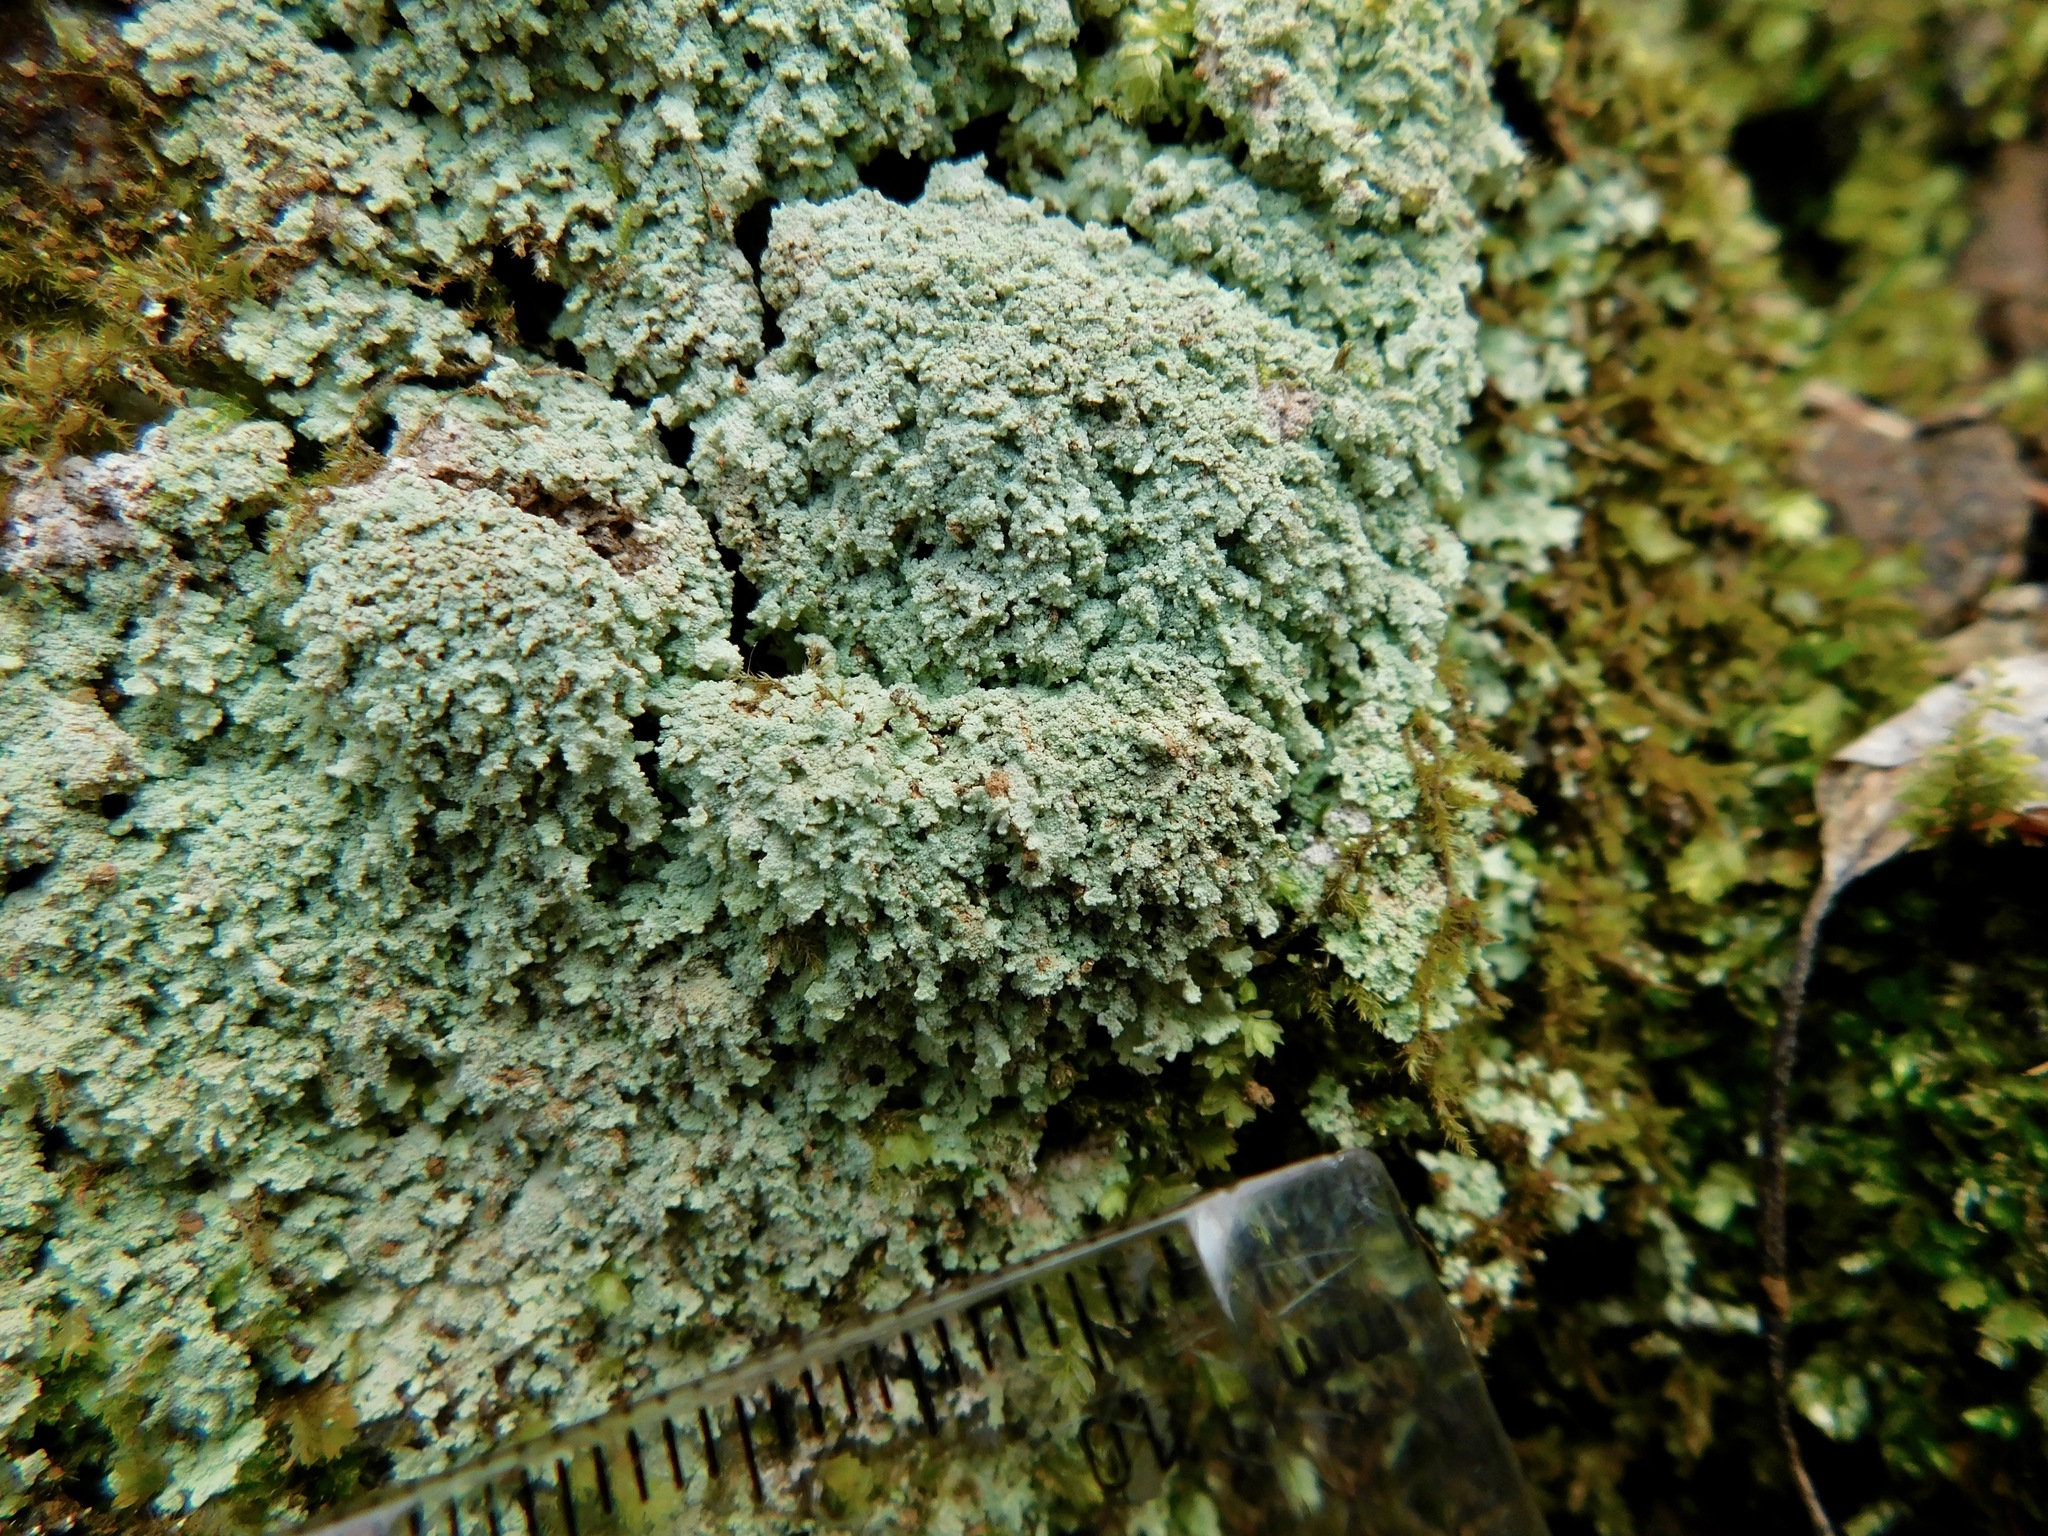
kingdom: Fungi
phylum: Ascomycota
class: Lecanoromycetes
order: Lecanorales
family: Stereocaulaceae
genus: Lepraria
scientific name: Lepraria cryophila
